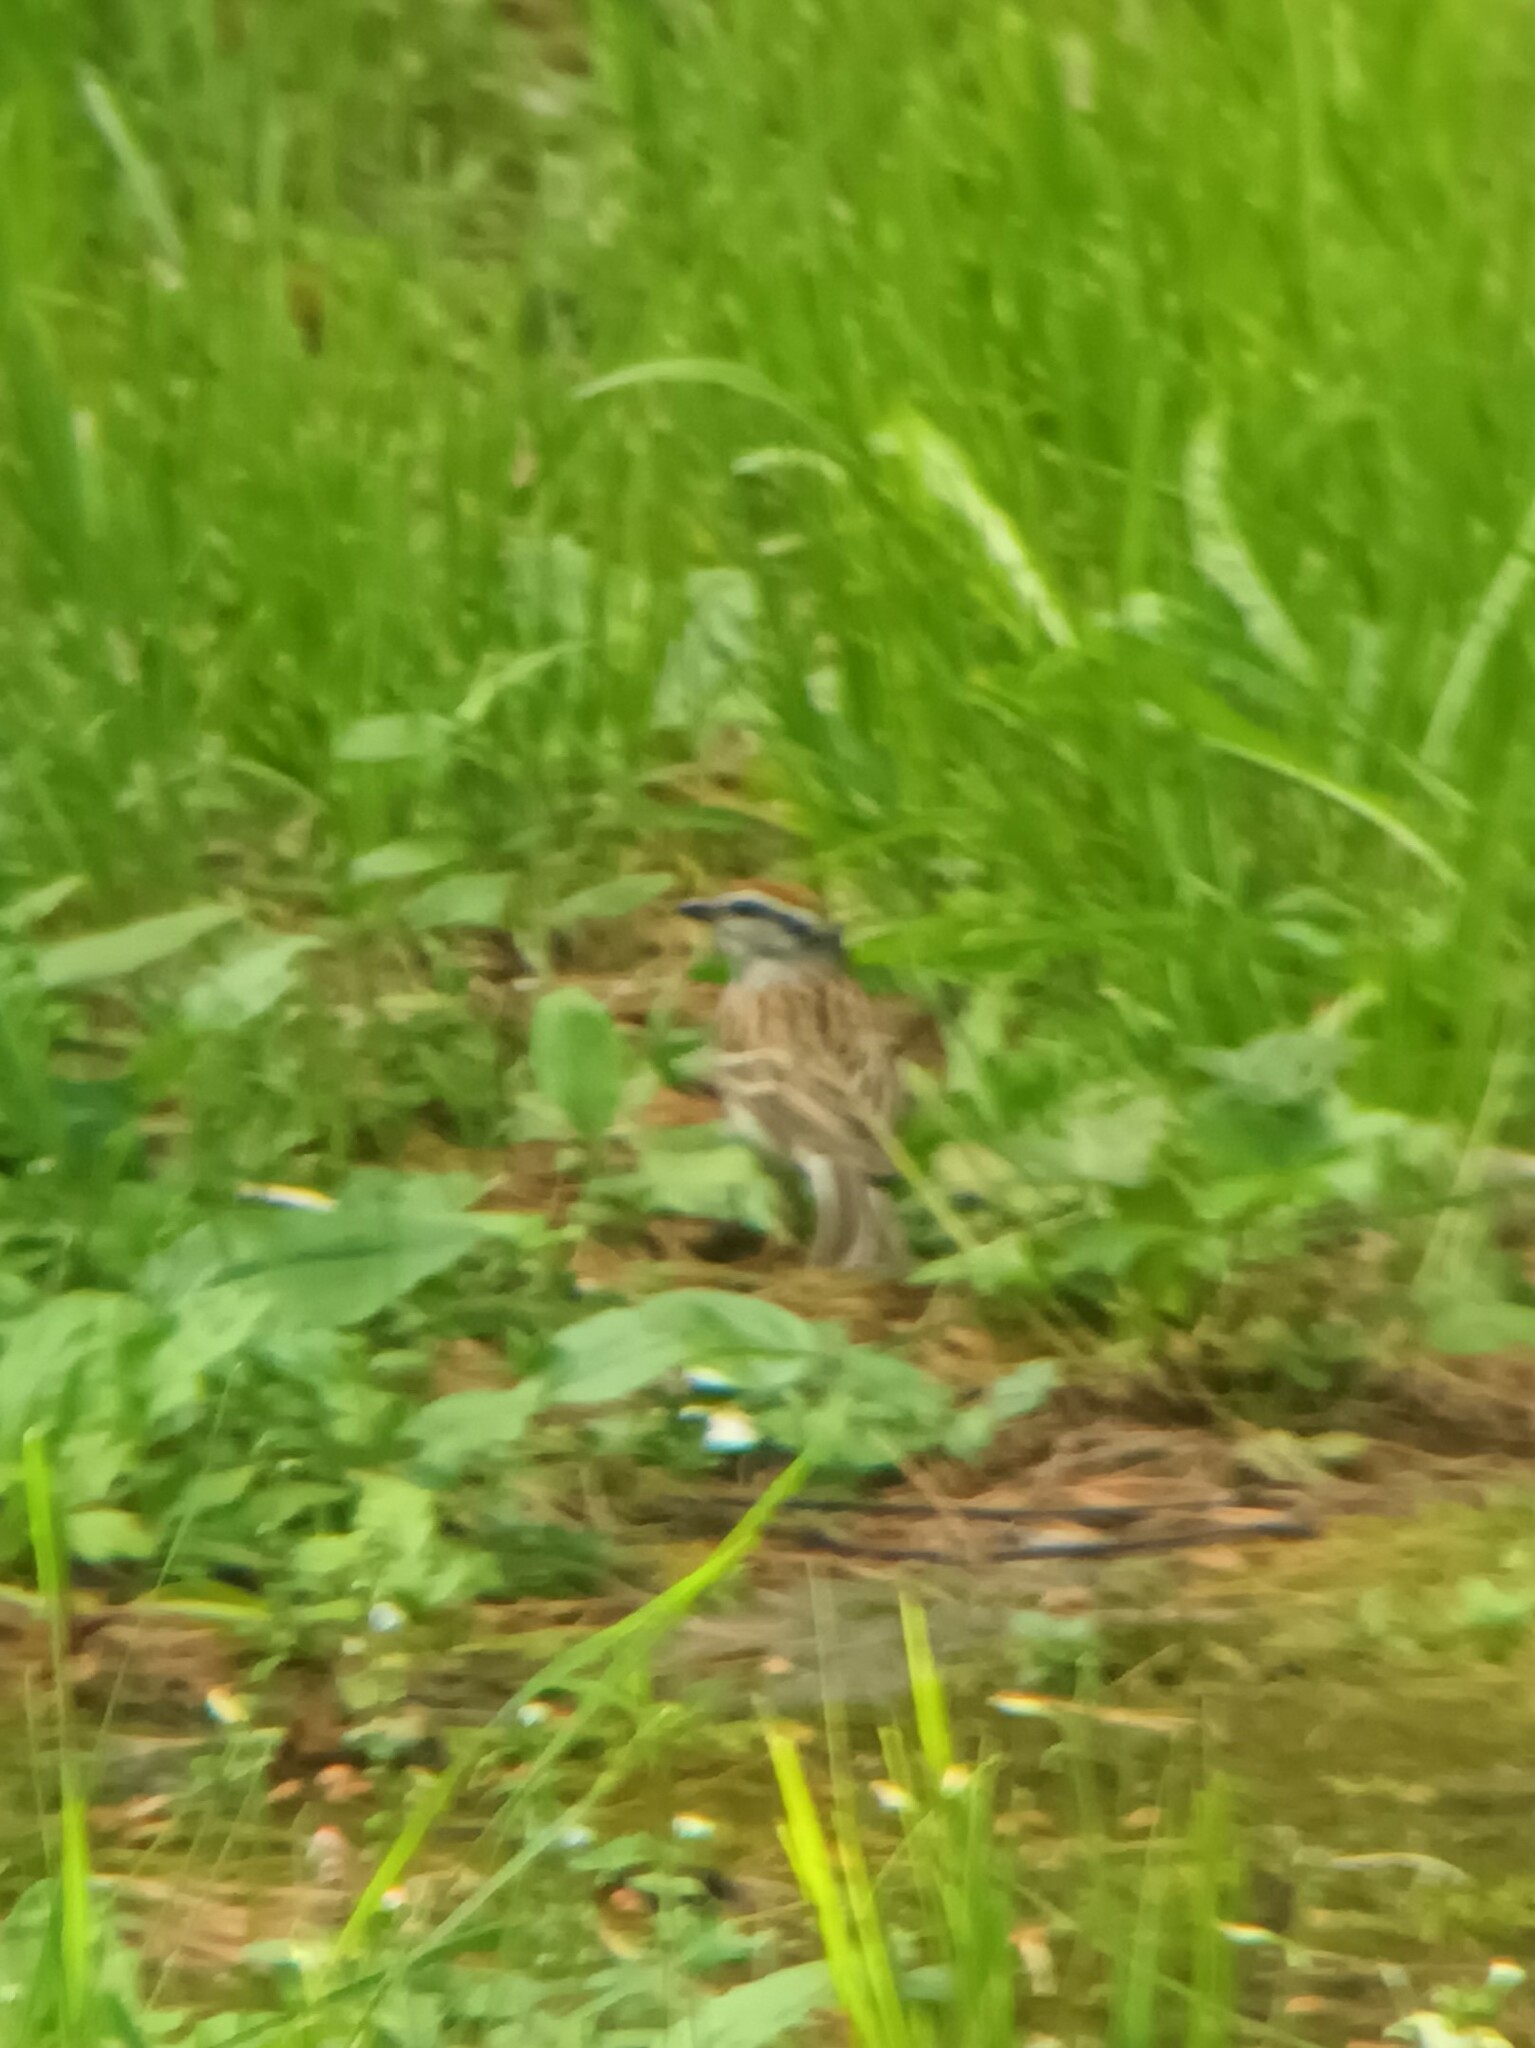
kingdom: Animalia
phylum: Chordata
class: Aves
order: Passeriformes
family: Passerellidae
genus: Spizella
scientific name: Spizella passerina
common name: Chipping sparrow
